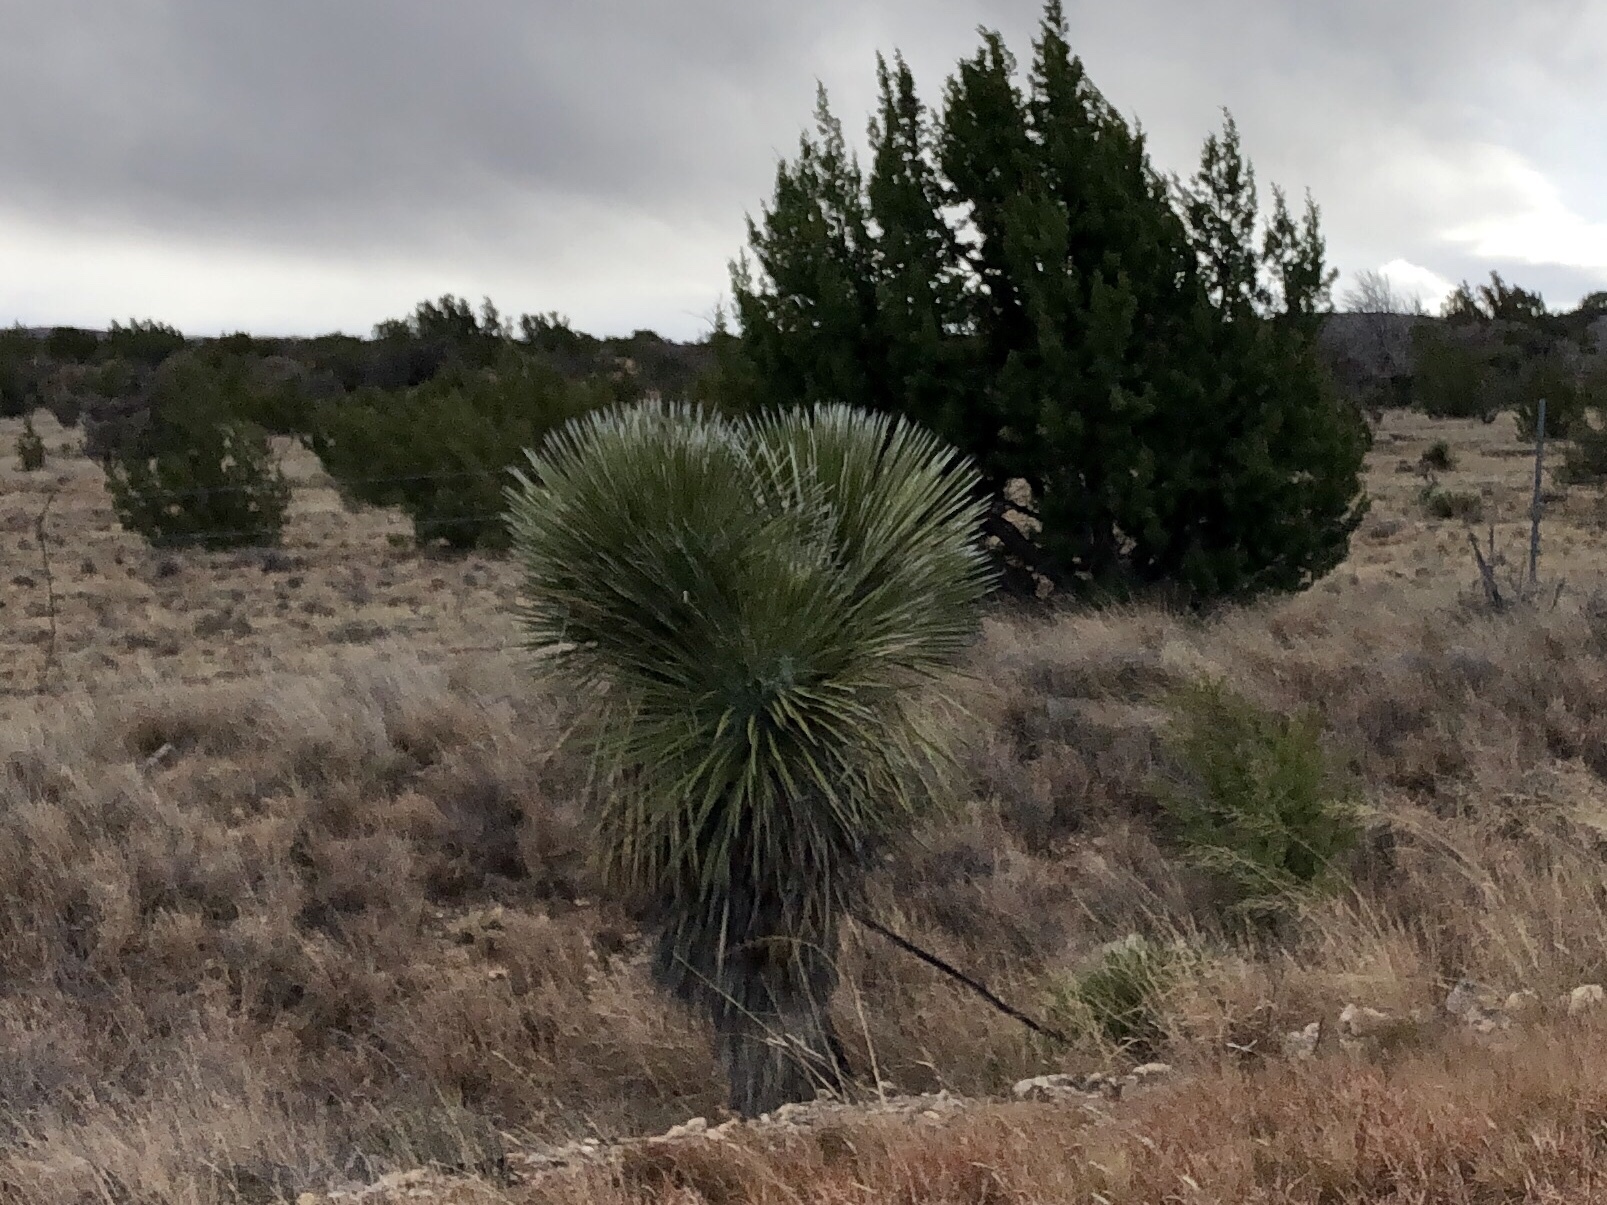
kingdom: Plantae
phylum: Tracheophyta
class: Liliopsida
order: Asparagales
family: Asparagaceae
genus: Yucca
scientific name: Yucca elata
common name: Palmella
